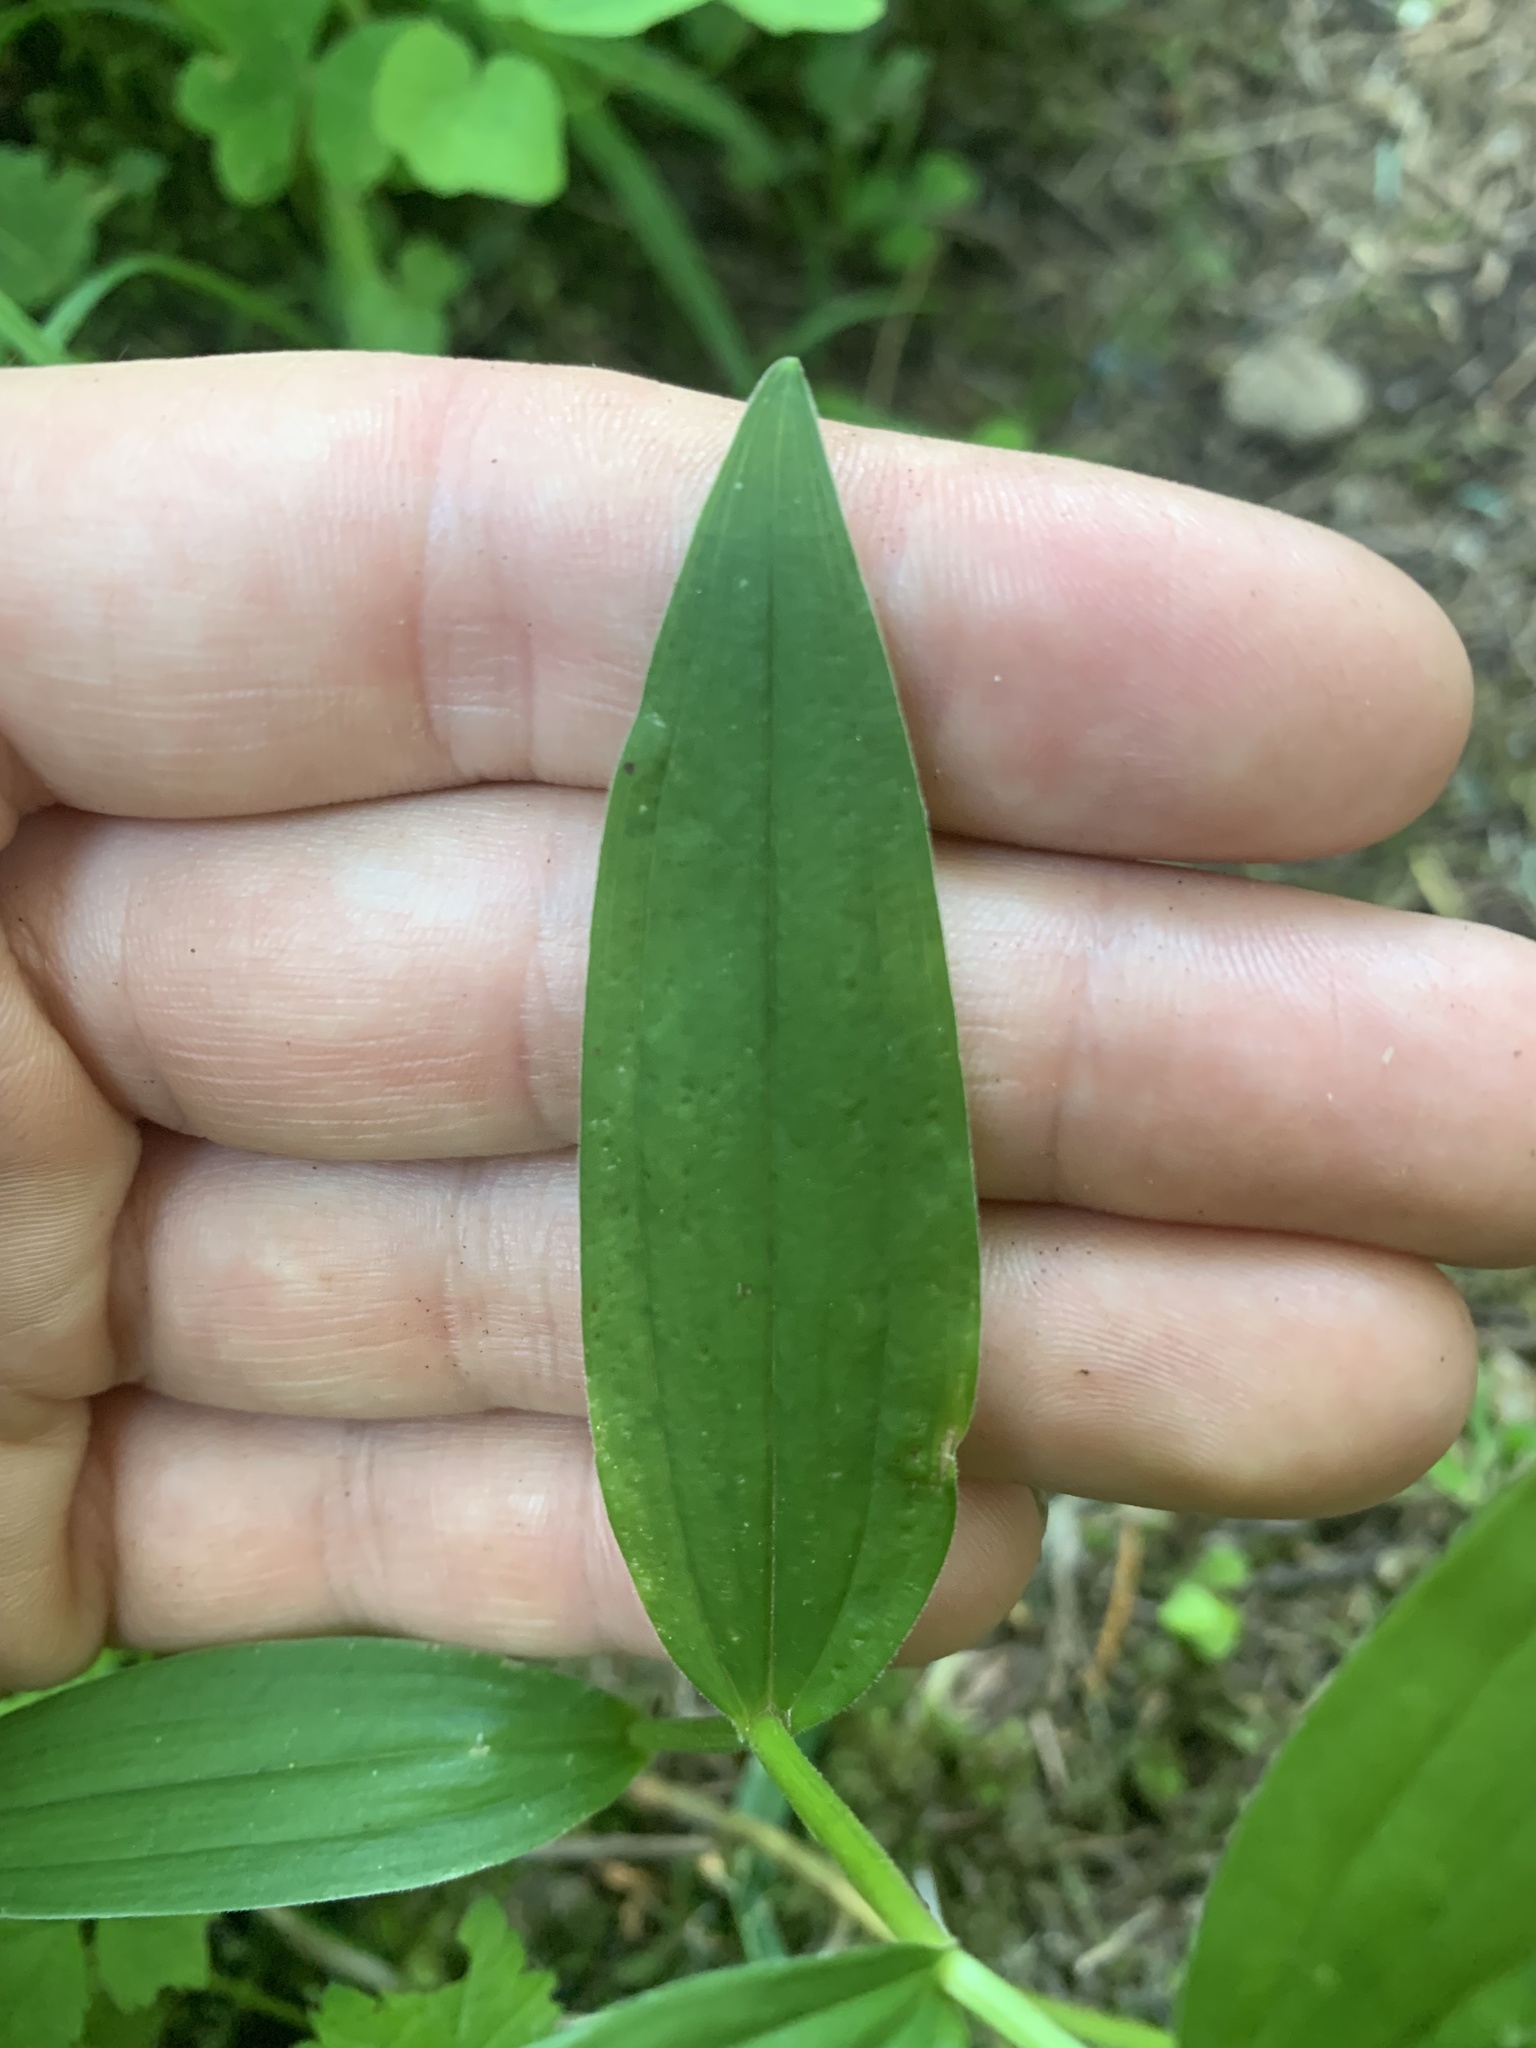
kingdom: Plantae
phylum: Tracheophyta
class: Liliopsida
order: Asparagales
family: Asparagaceae
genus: Maianthemum
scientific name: Maianthemum stellatum
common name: Little false solomon's seal
